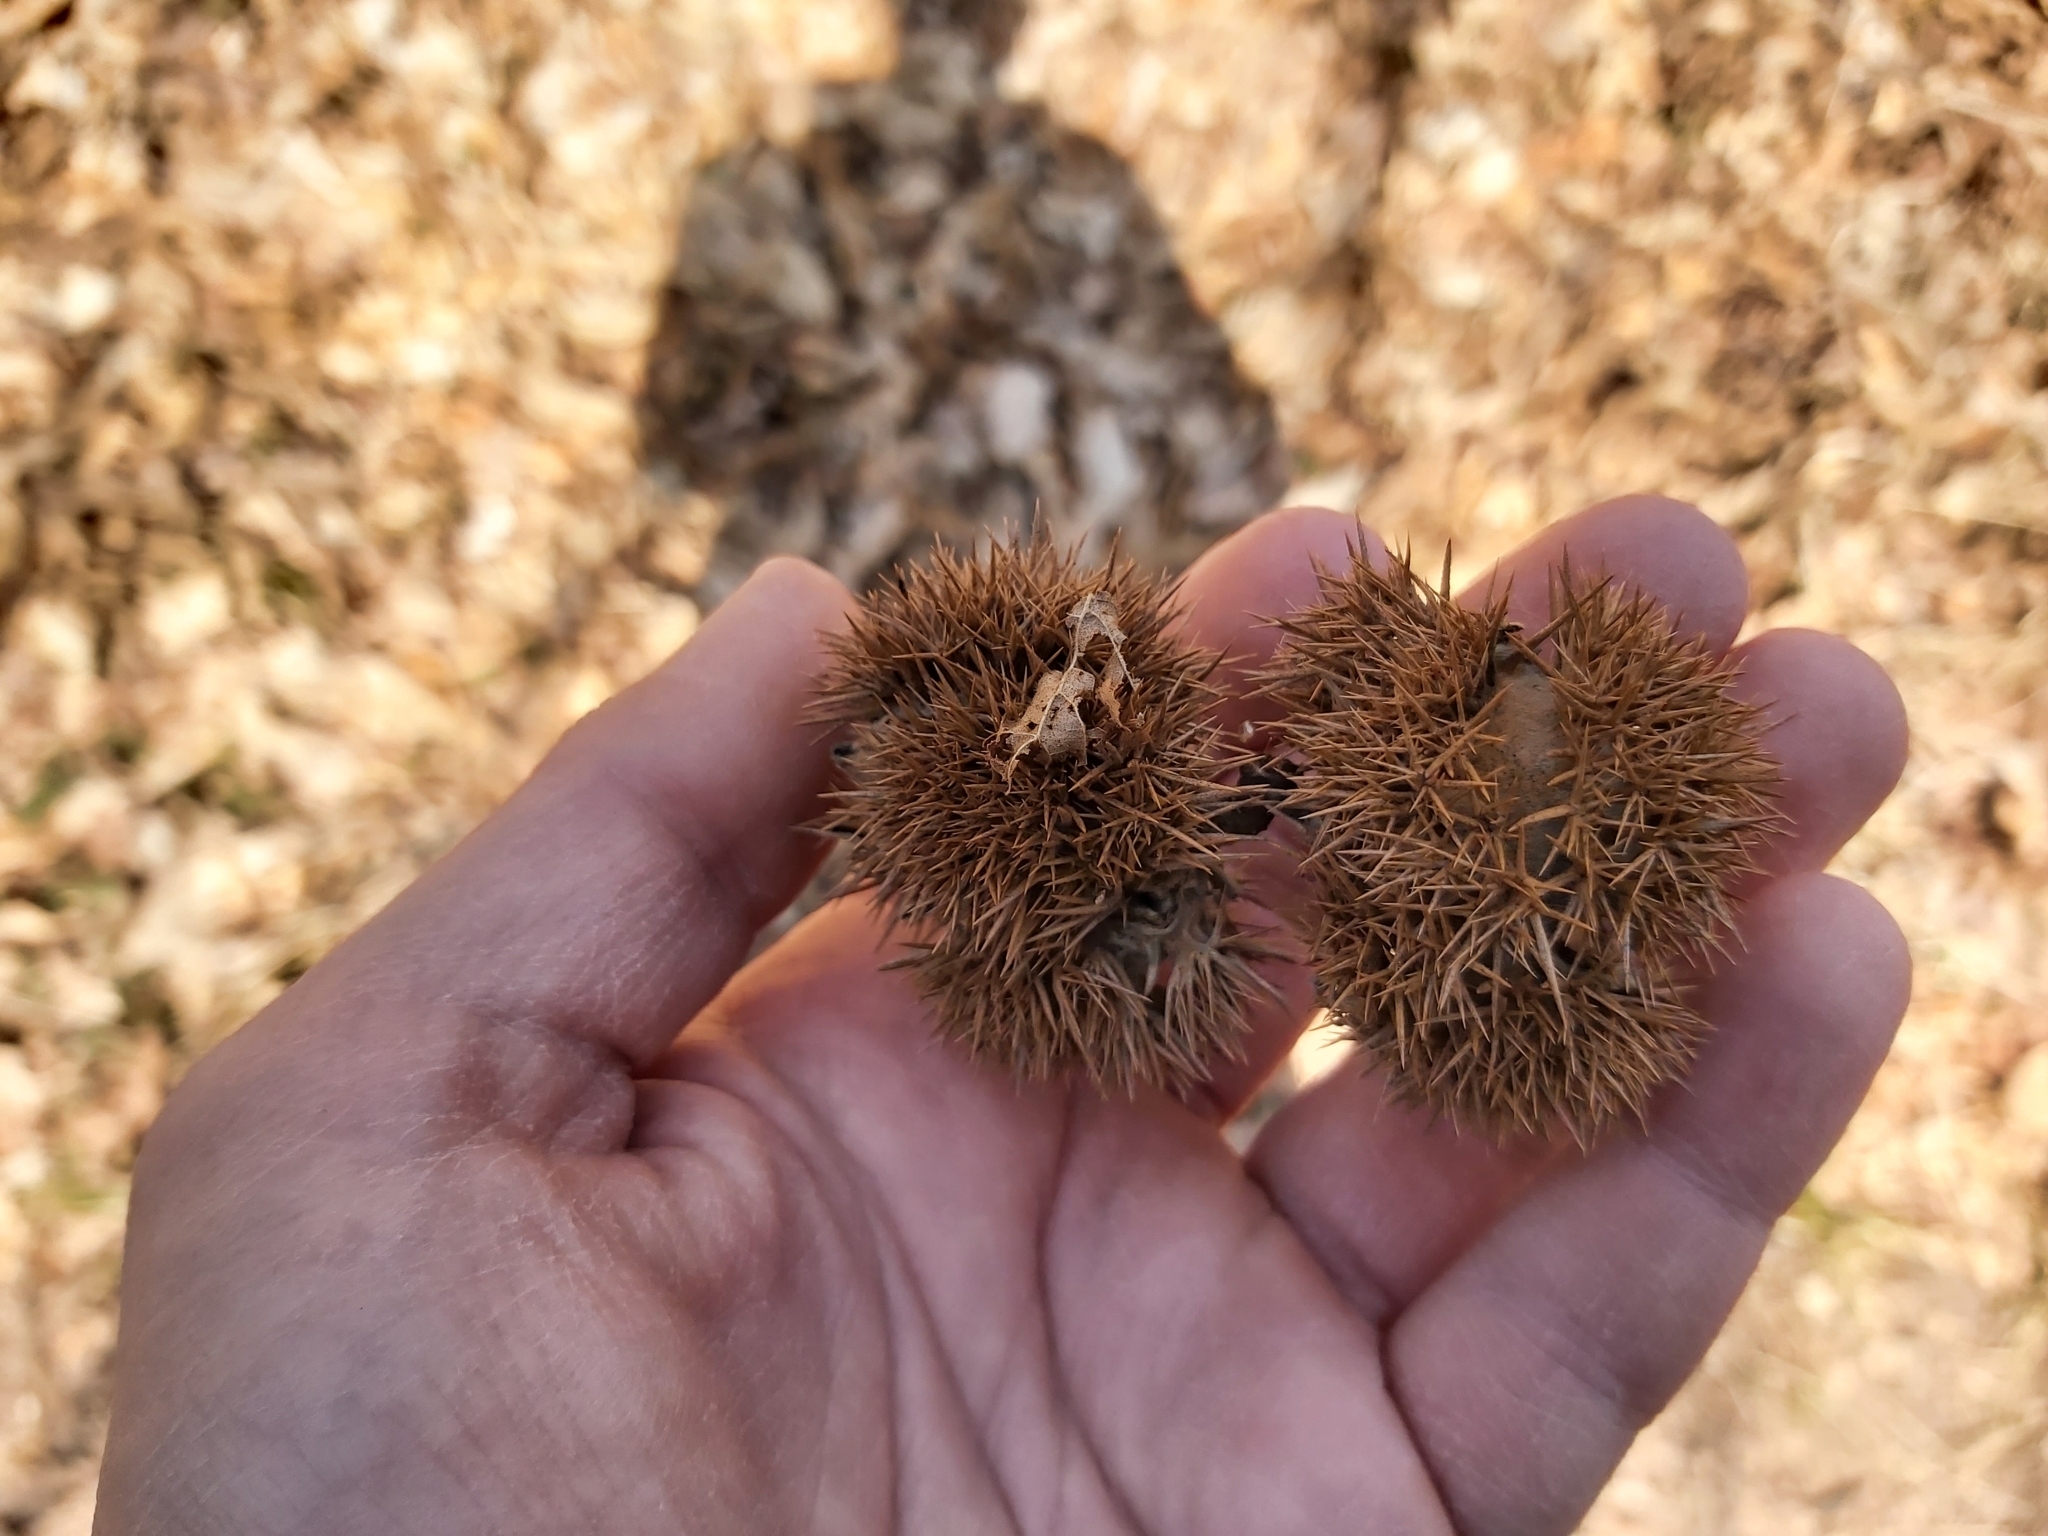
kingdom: Plantae
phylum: Tracheophyta
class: Magnoliopsida
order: Fagales
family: Fagaceae
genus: Castanea
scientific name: Castanea sativa
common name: Sweet chestnut
